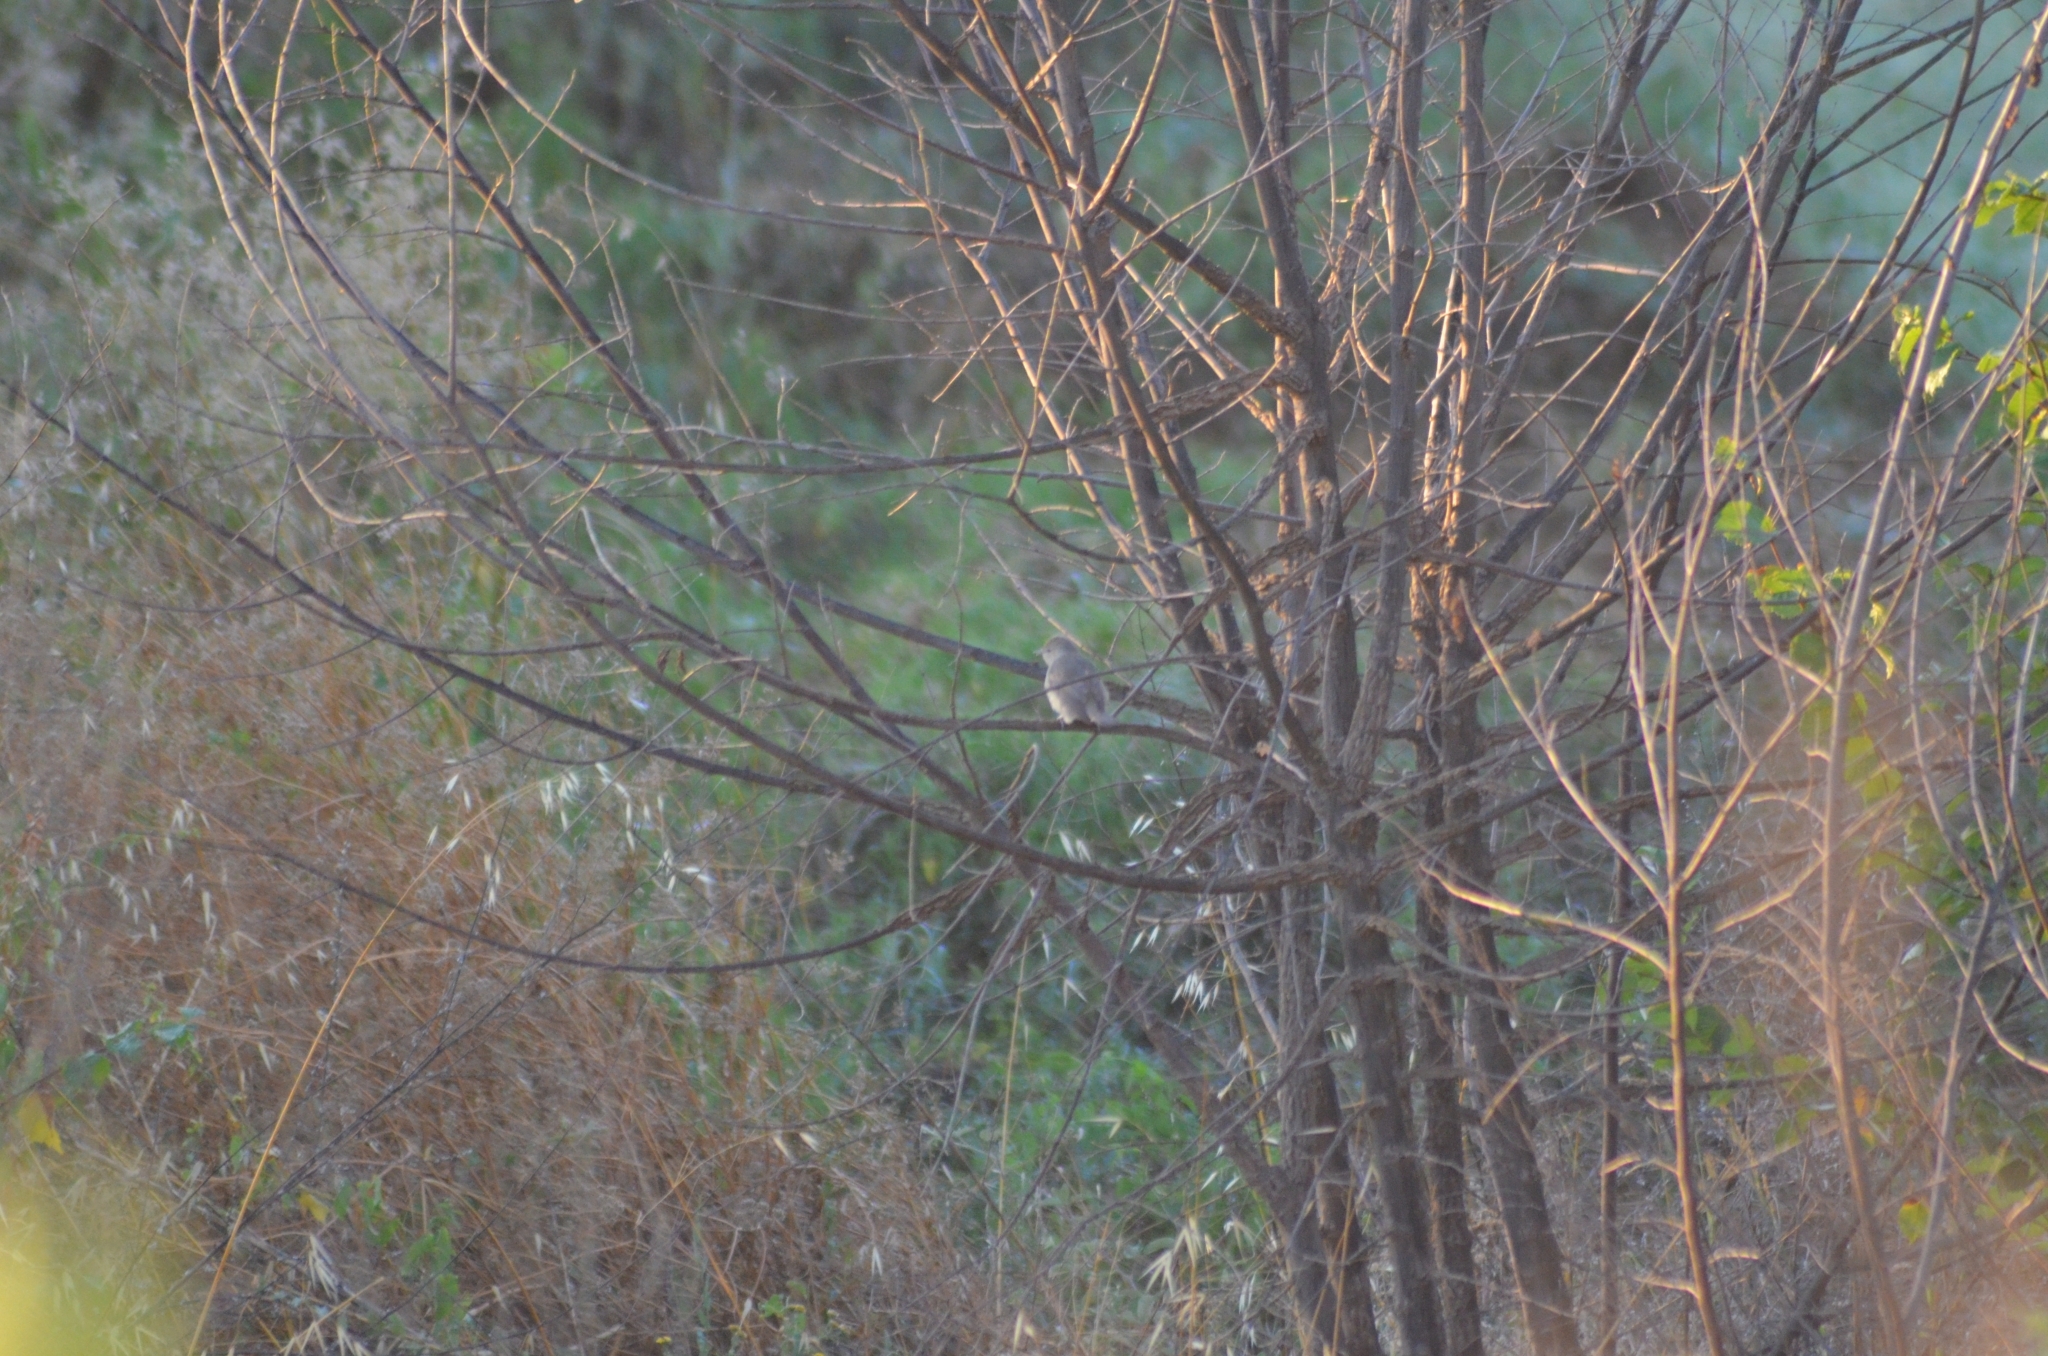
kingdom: Animalia
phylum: Chordata
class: Aves
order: Passeriformes
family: Sylviidae
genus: Sylvia
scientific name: Sylvia atricapilla
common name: Eurasian blackcap
